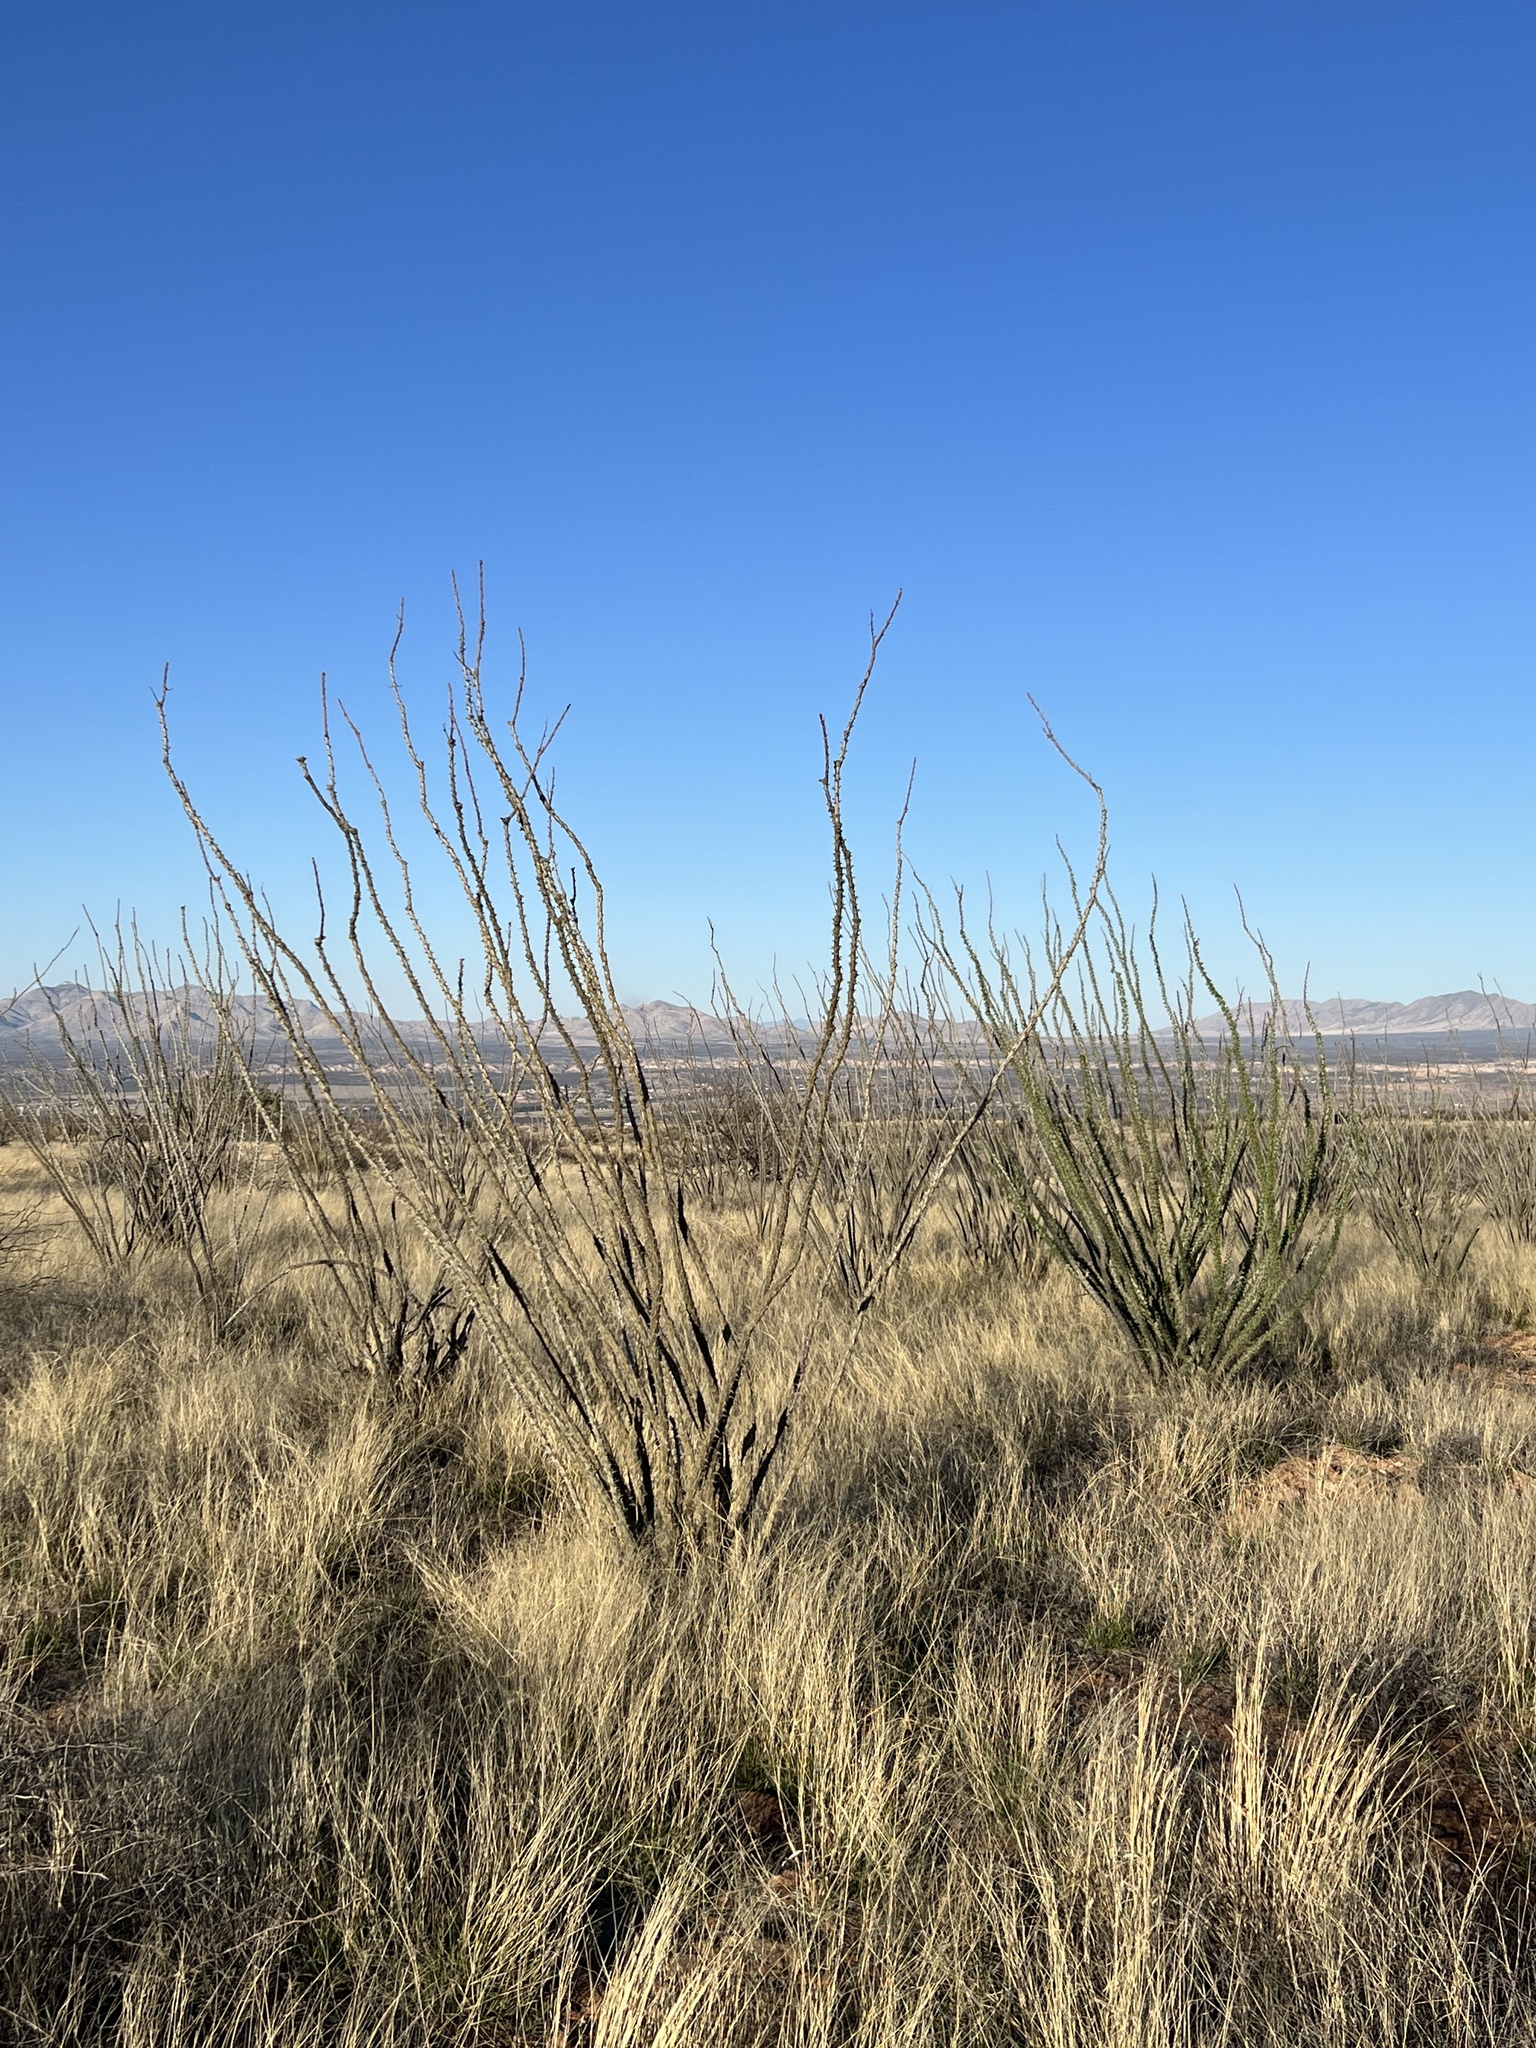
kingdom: Plantae
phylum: Tracheophyta
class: Magnoliopsida
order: Ericales
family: Fouquieriaceae
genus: Fouquieria
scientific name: Fouquieria splendens
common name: Vine-cactus
